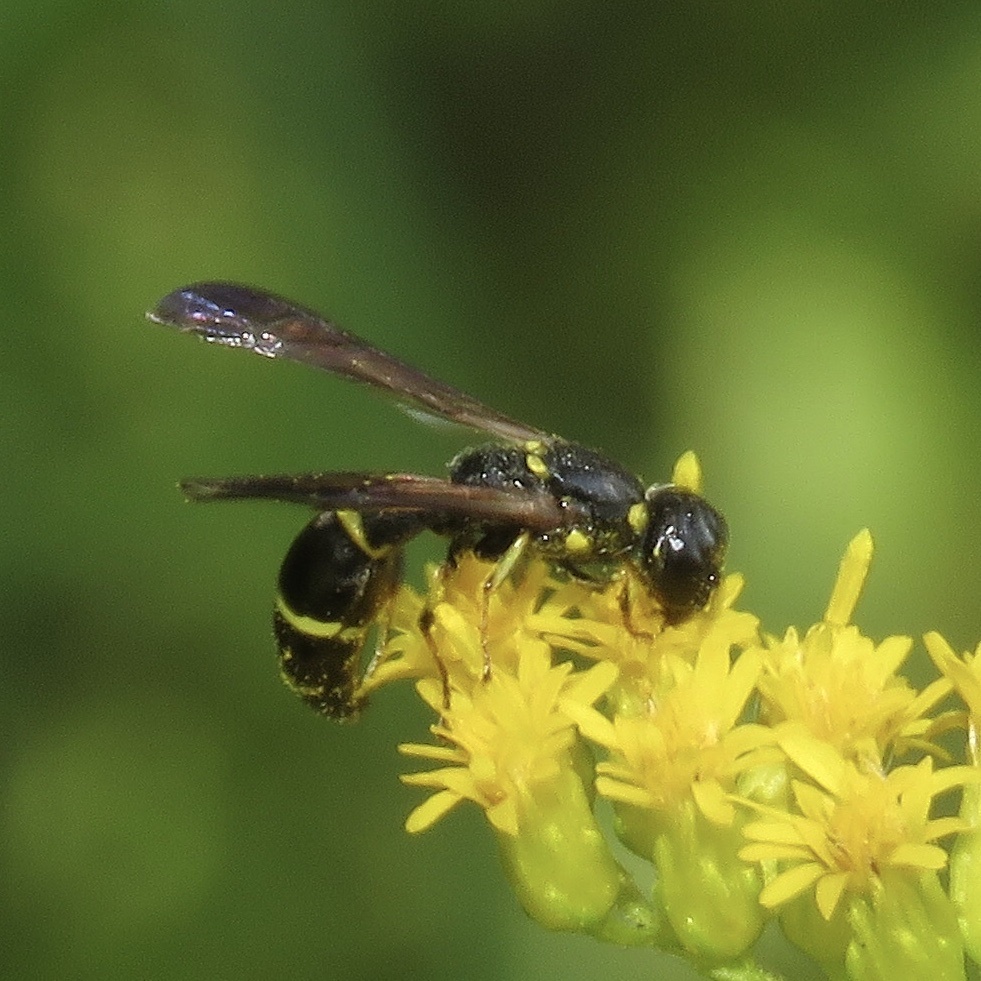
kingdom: Animalia
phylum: Arthropoda
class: Insecta
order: Hymenoptera
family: Eumenidae
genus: Symmorphus
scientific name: Symmorphus
